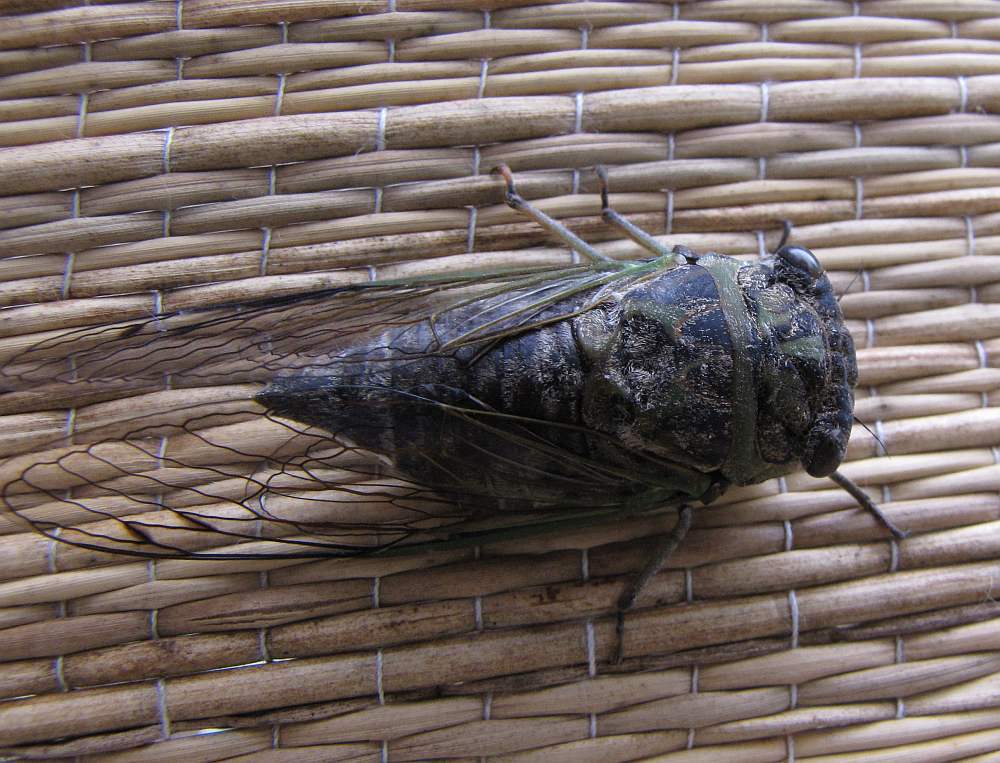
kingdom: Animalia
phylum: Arthropoda
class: Insecta
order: Hemiptera
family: Cicadidae
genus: Neotibicen
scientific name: Neotibicen canicularis
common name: God-day cicada
